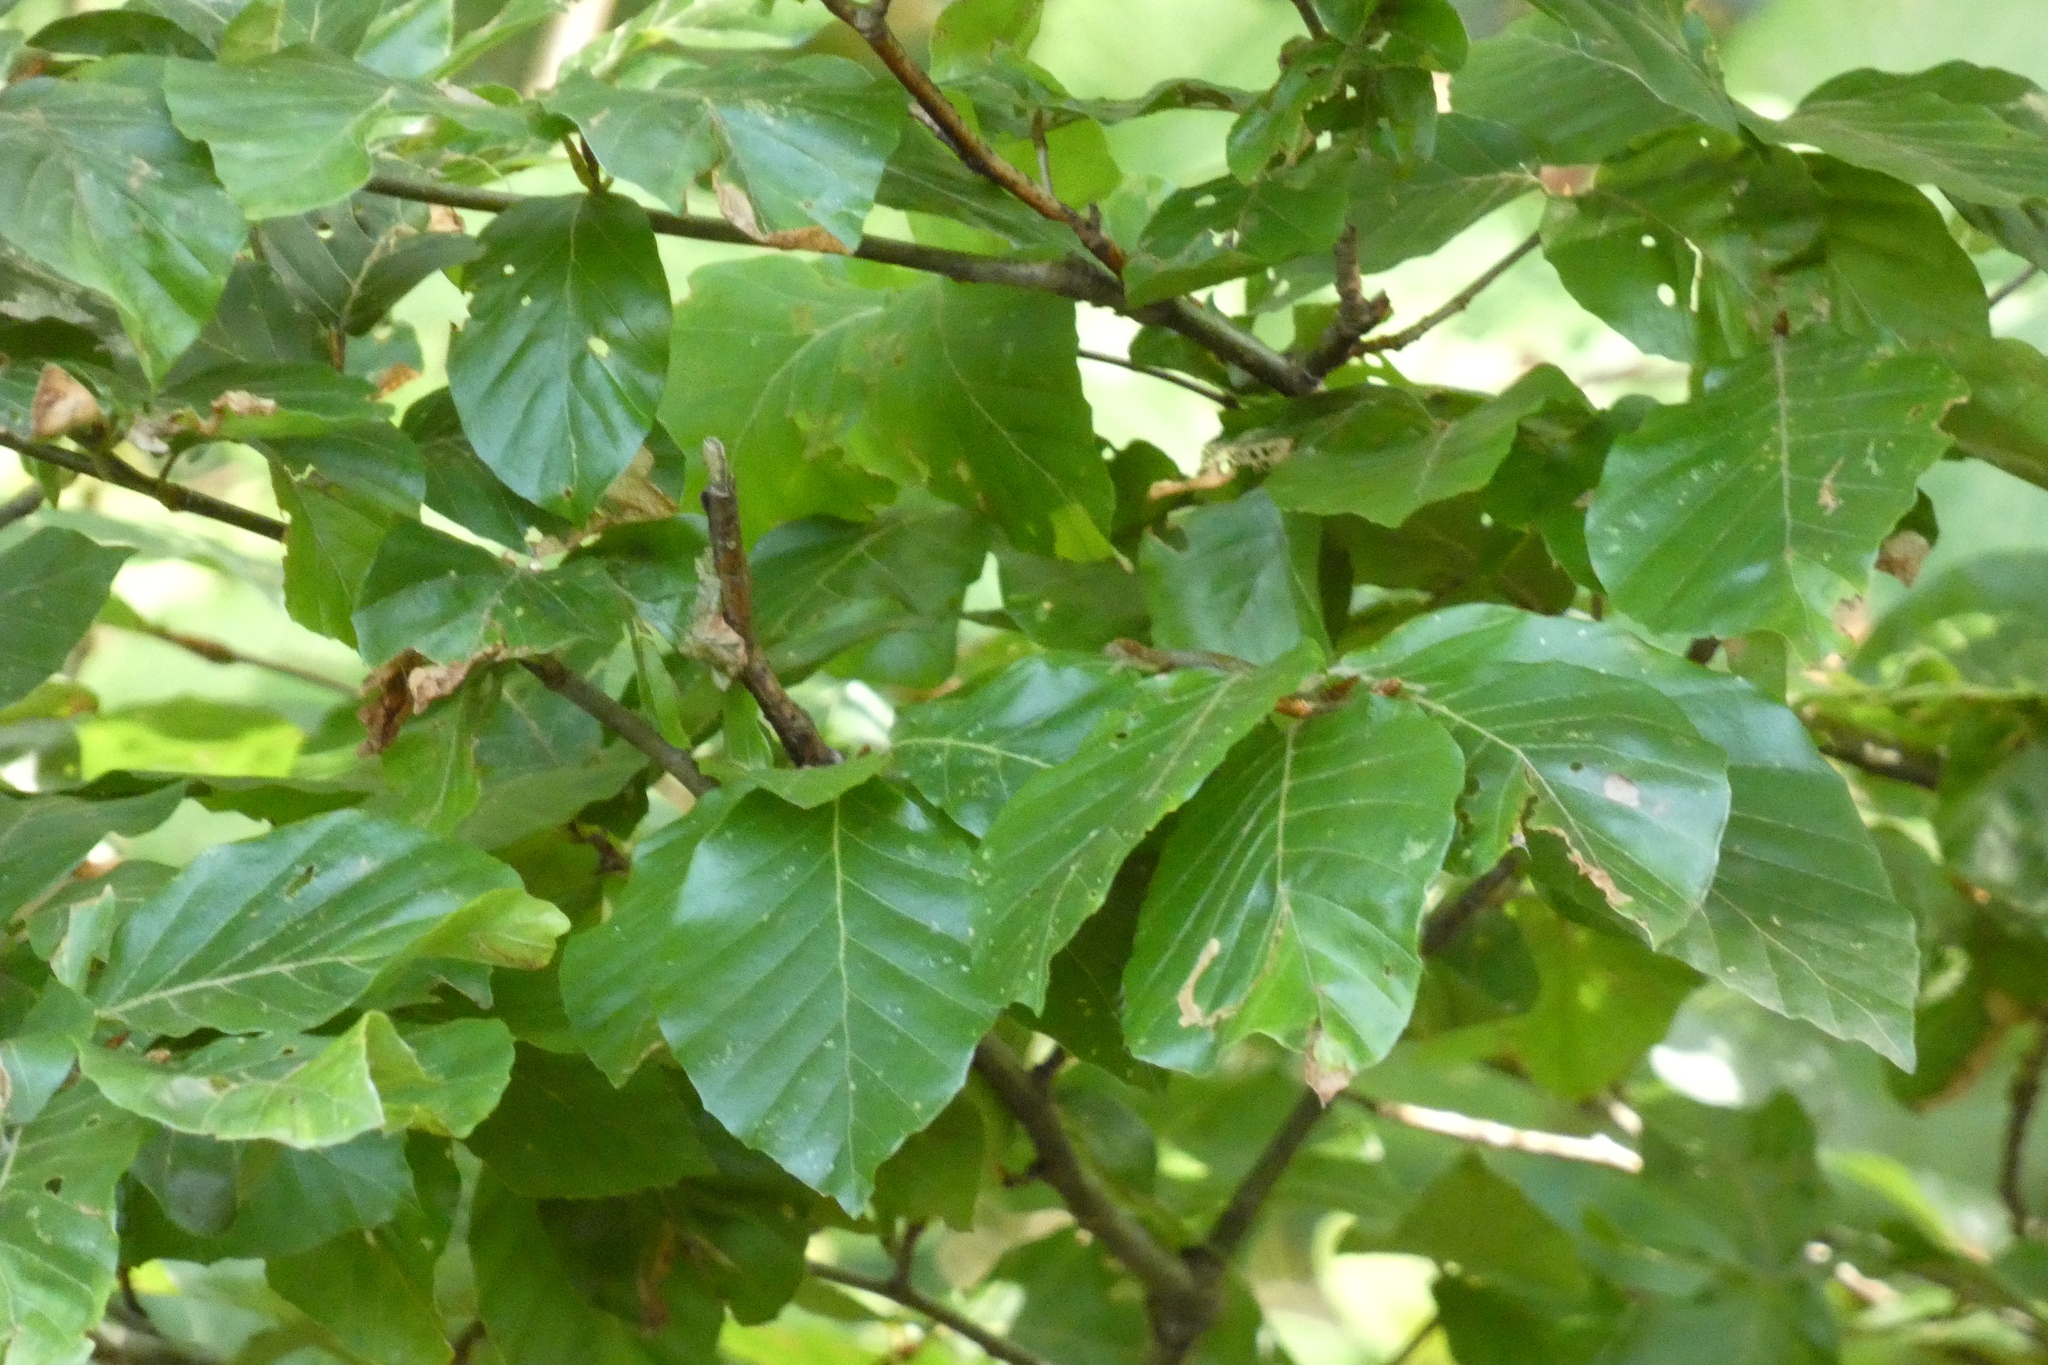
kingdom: Plantae
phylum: Tracheophyta
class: Magnoliopsida
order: Fagales
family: Fagaceae
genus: Fagus
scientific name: Fagus sylvatica
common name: Beech
